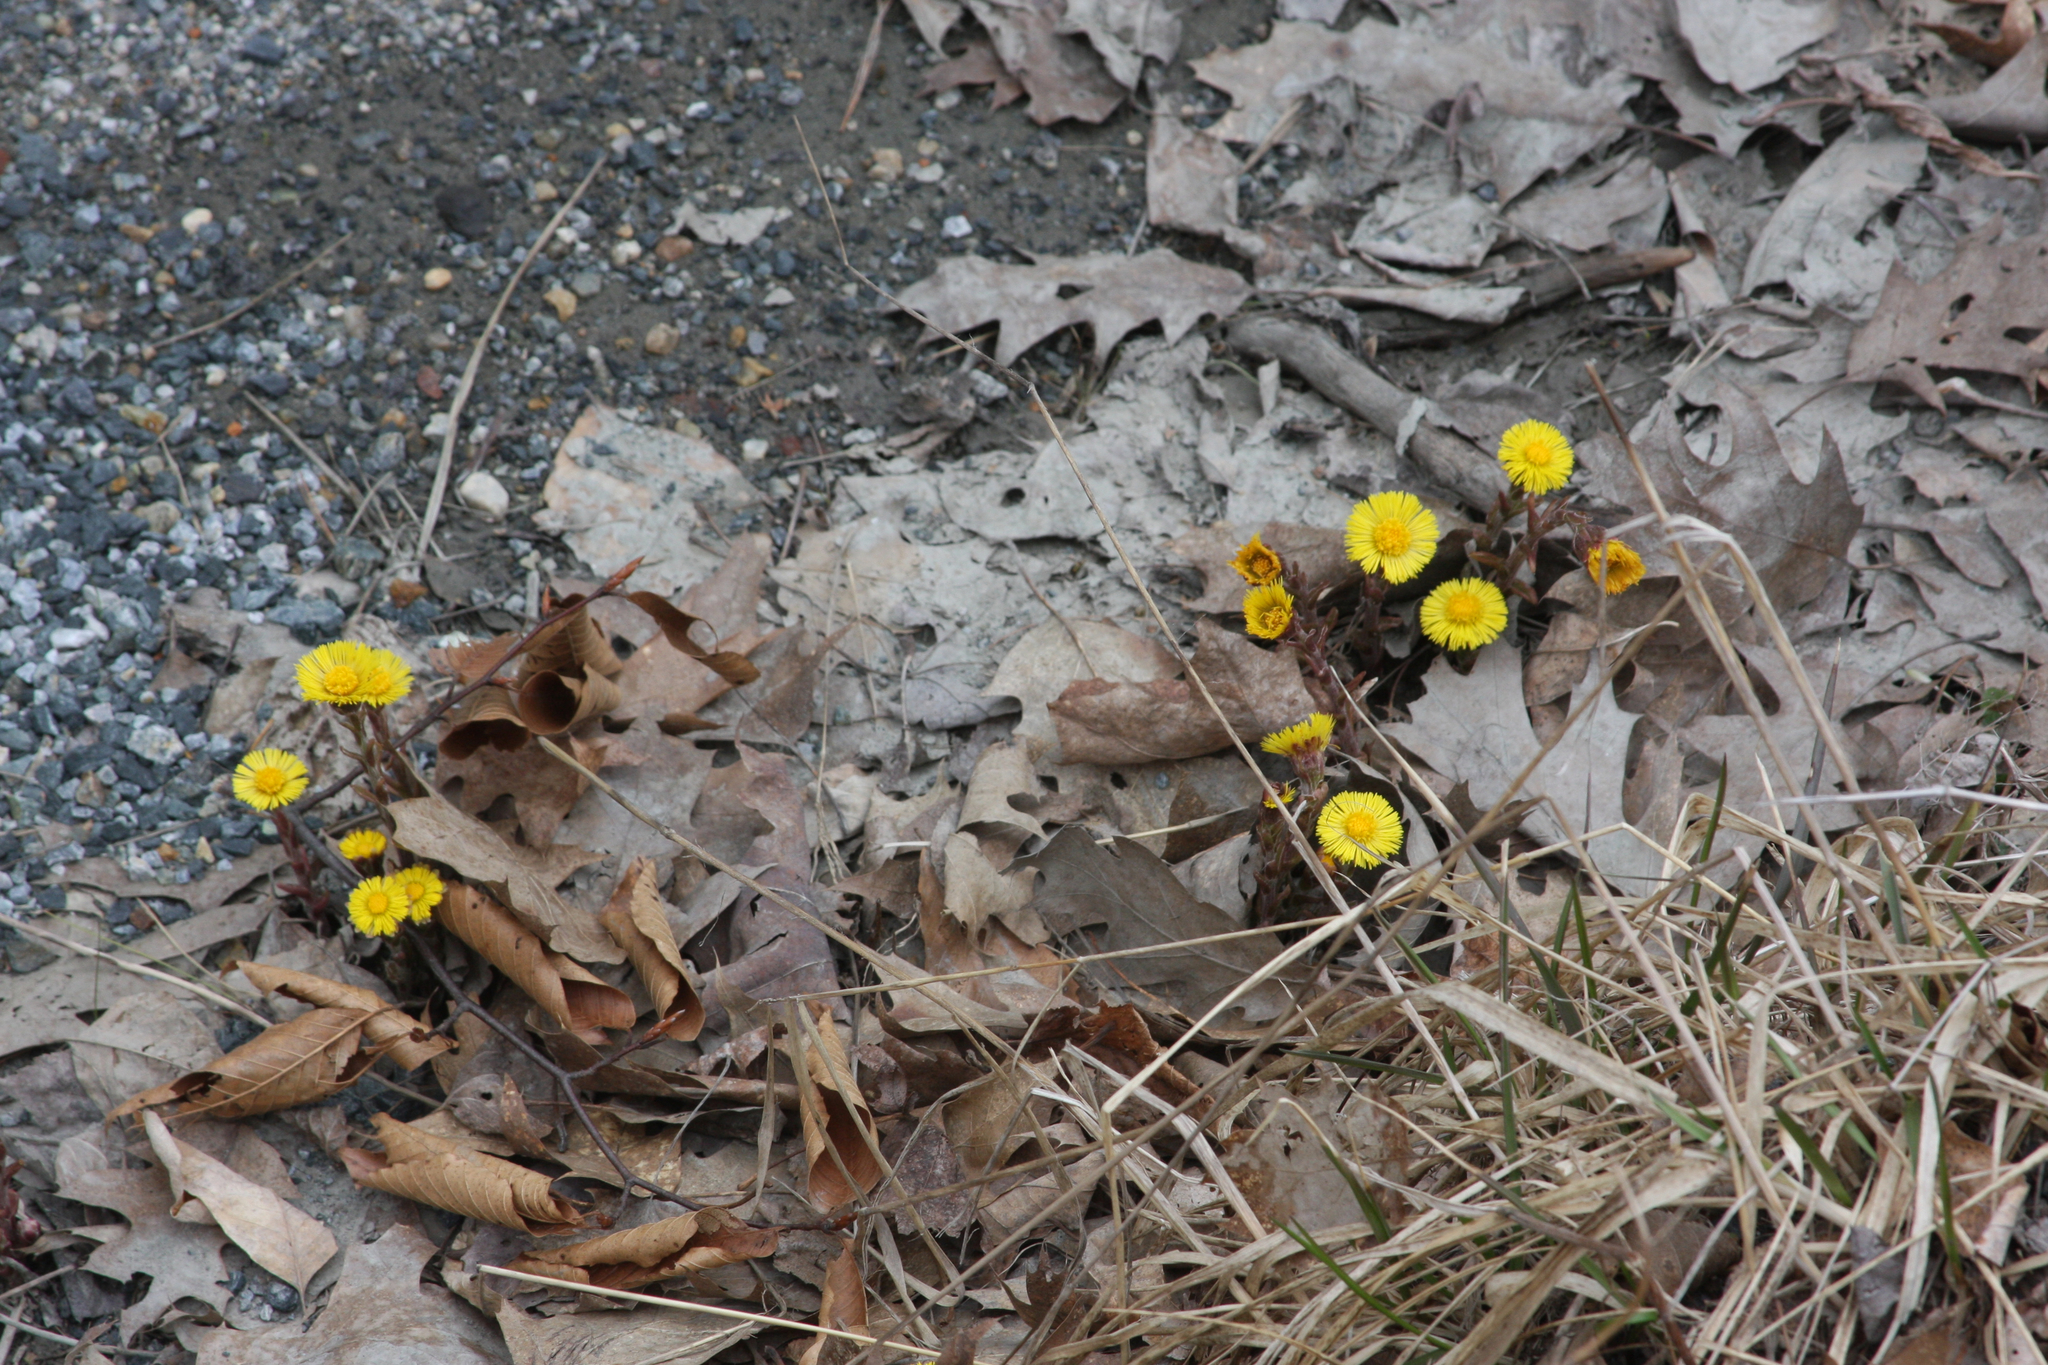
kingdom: Plantae
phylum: Tracheophyta
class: Magnoliopsida
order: Asterales
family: Asteraceae
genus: Tussilago
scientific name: Tussilago farfara
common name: Coltsfoot
